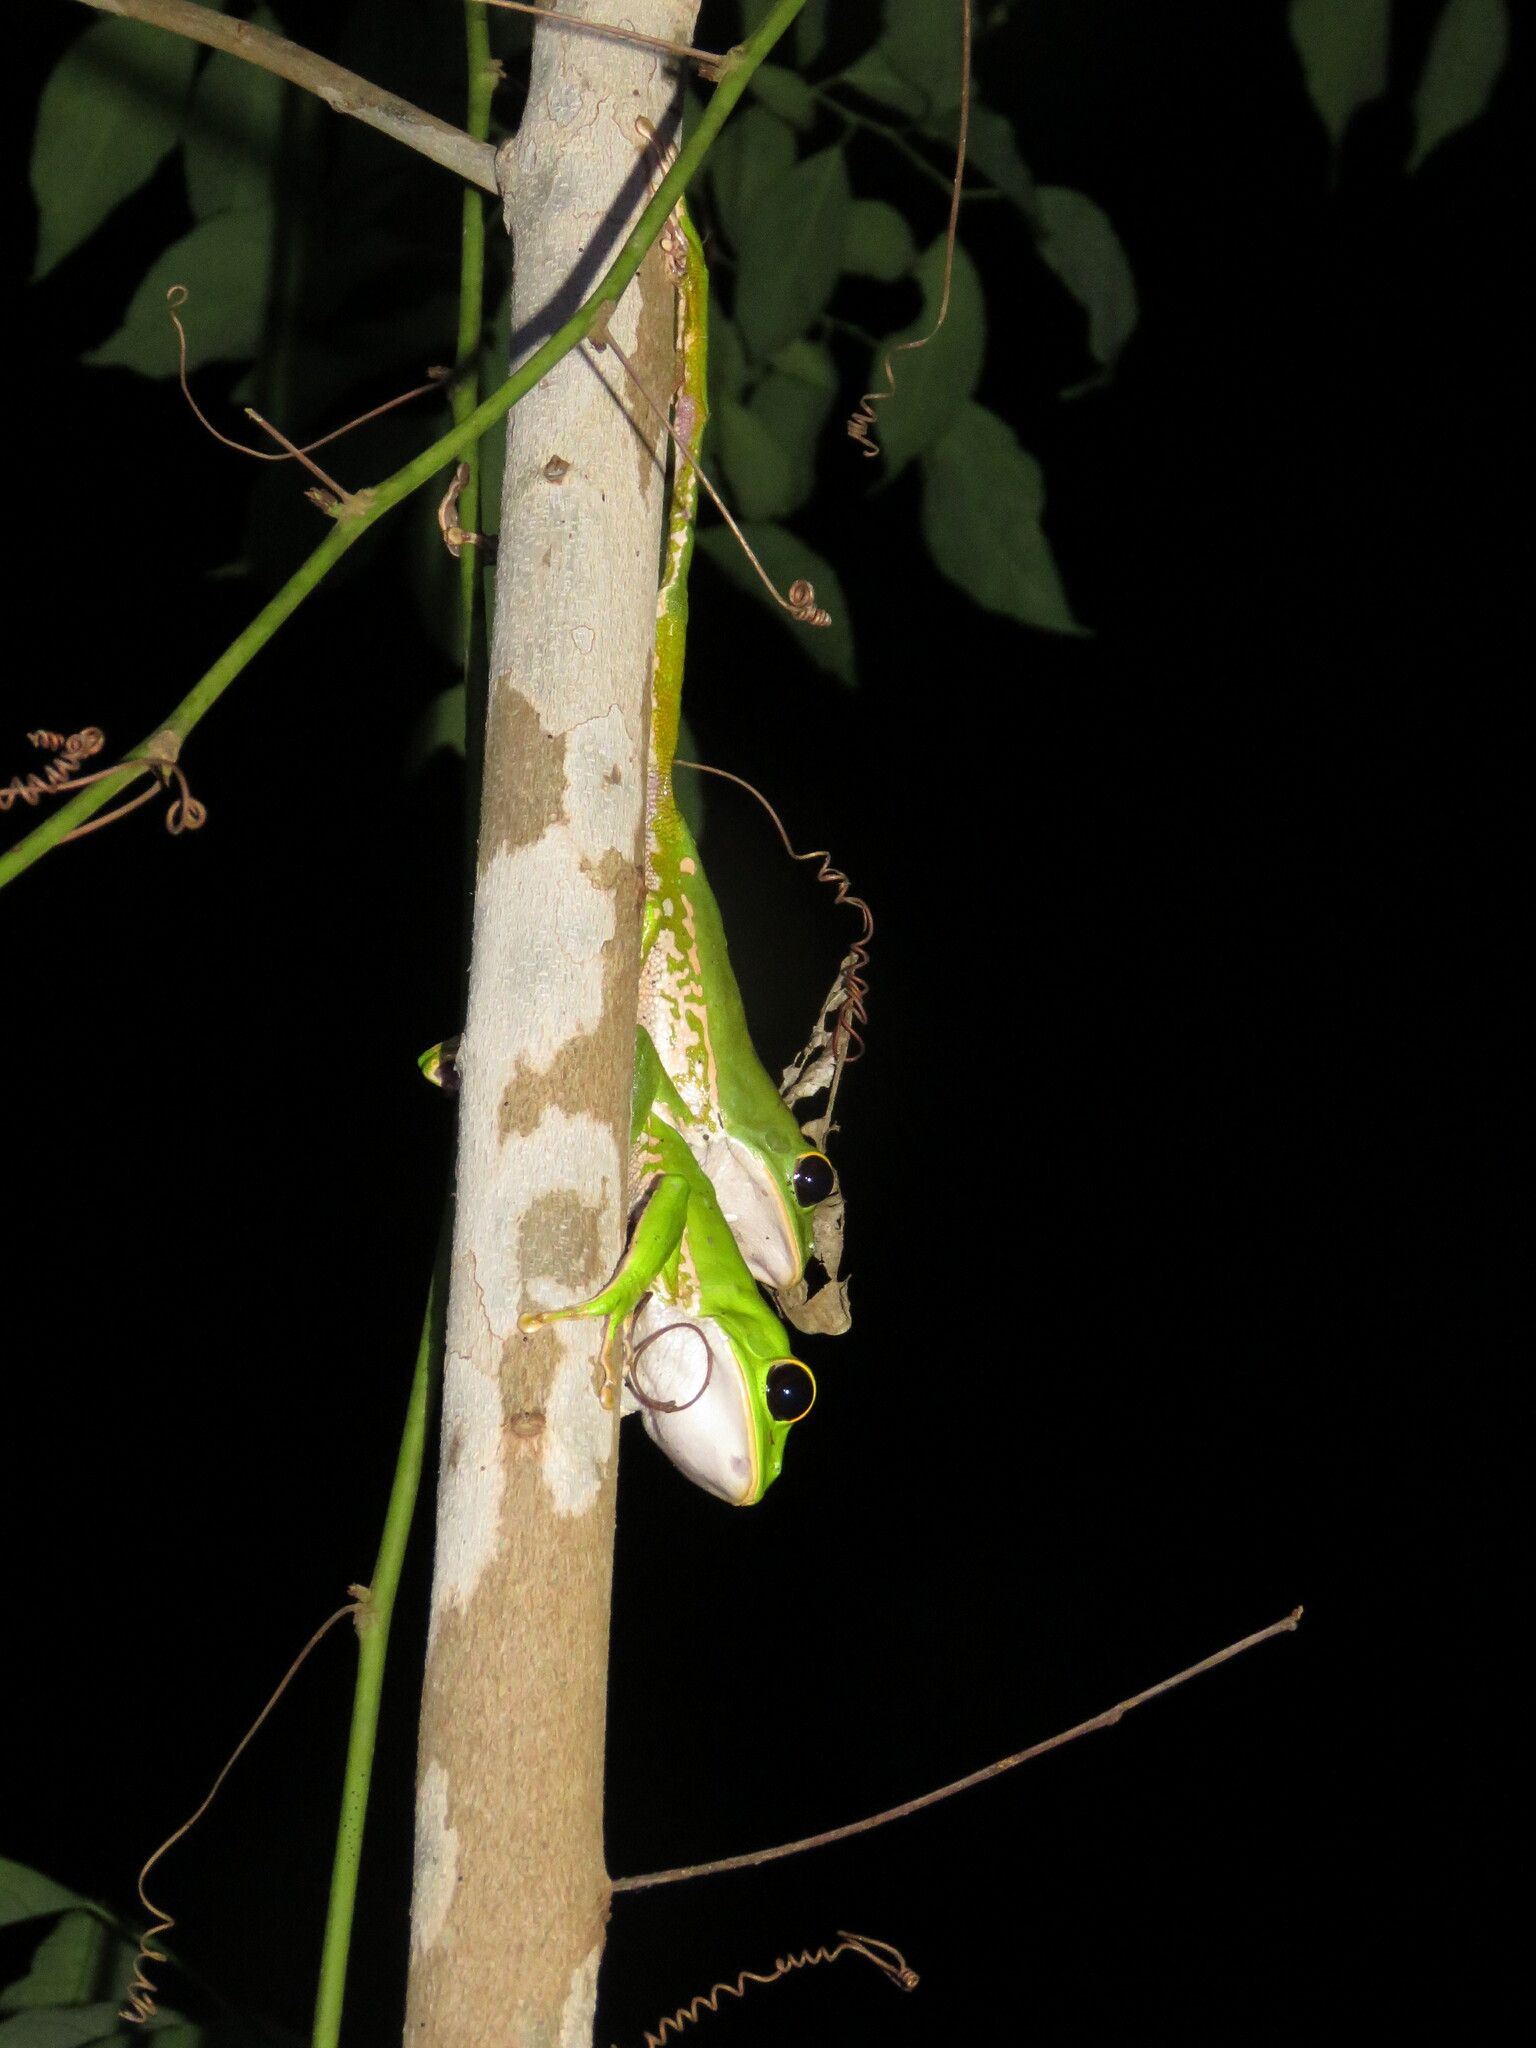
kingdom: Animalia
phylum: Chordata
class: Amphibia
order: Anura
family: Phyllomedusidae
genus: Phyllomedusa
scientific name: Phyllomedusa camba
